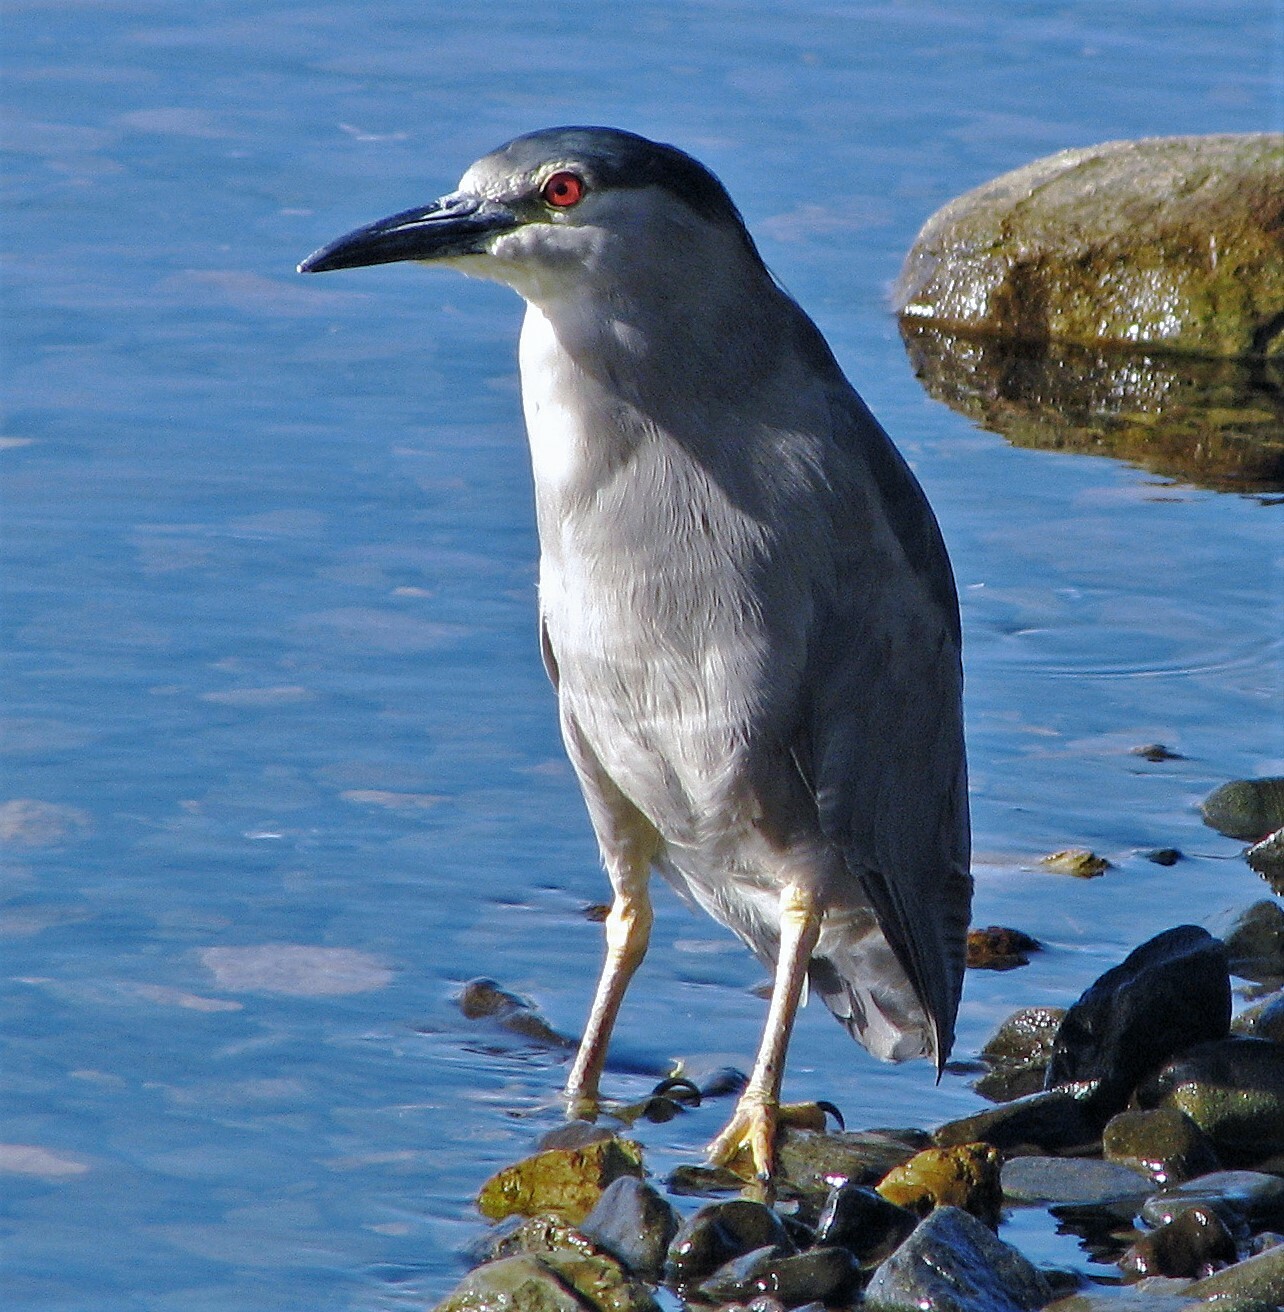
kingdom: Animalia
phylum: Chordata
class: Aves
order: Pelecaniformes
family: Ardeidae
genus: Nycticorax
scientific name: Nycticorax nycticorax
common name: Black-crowned night heron
